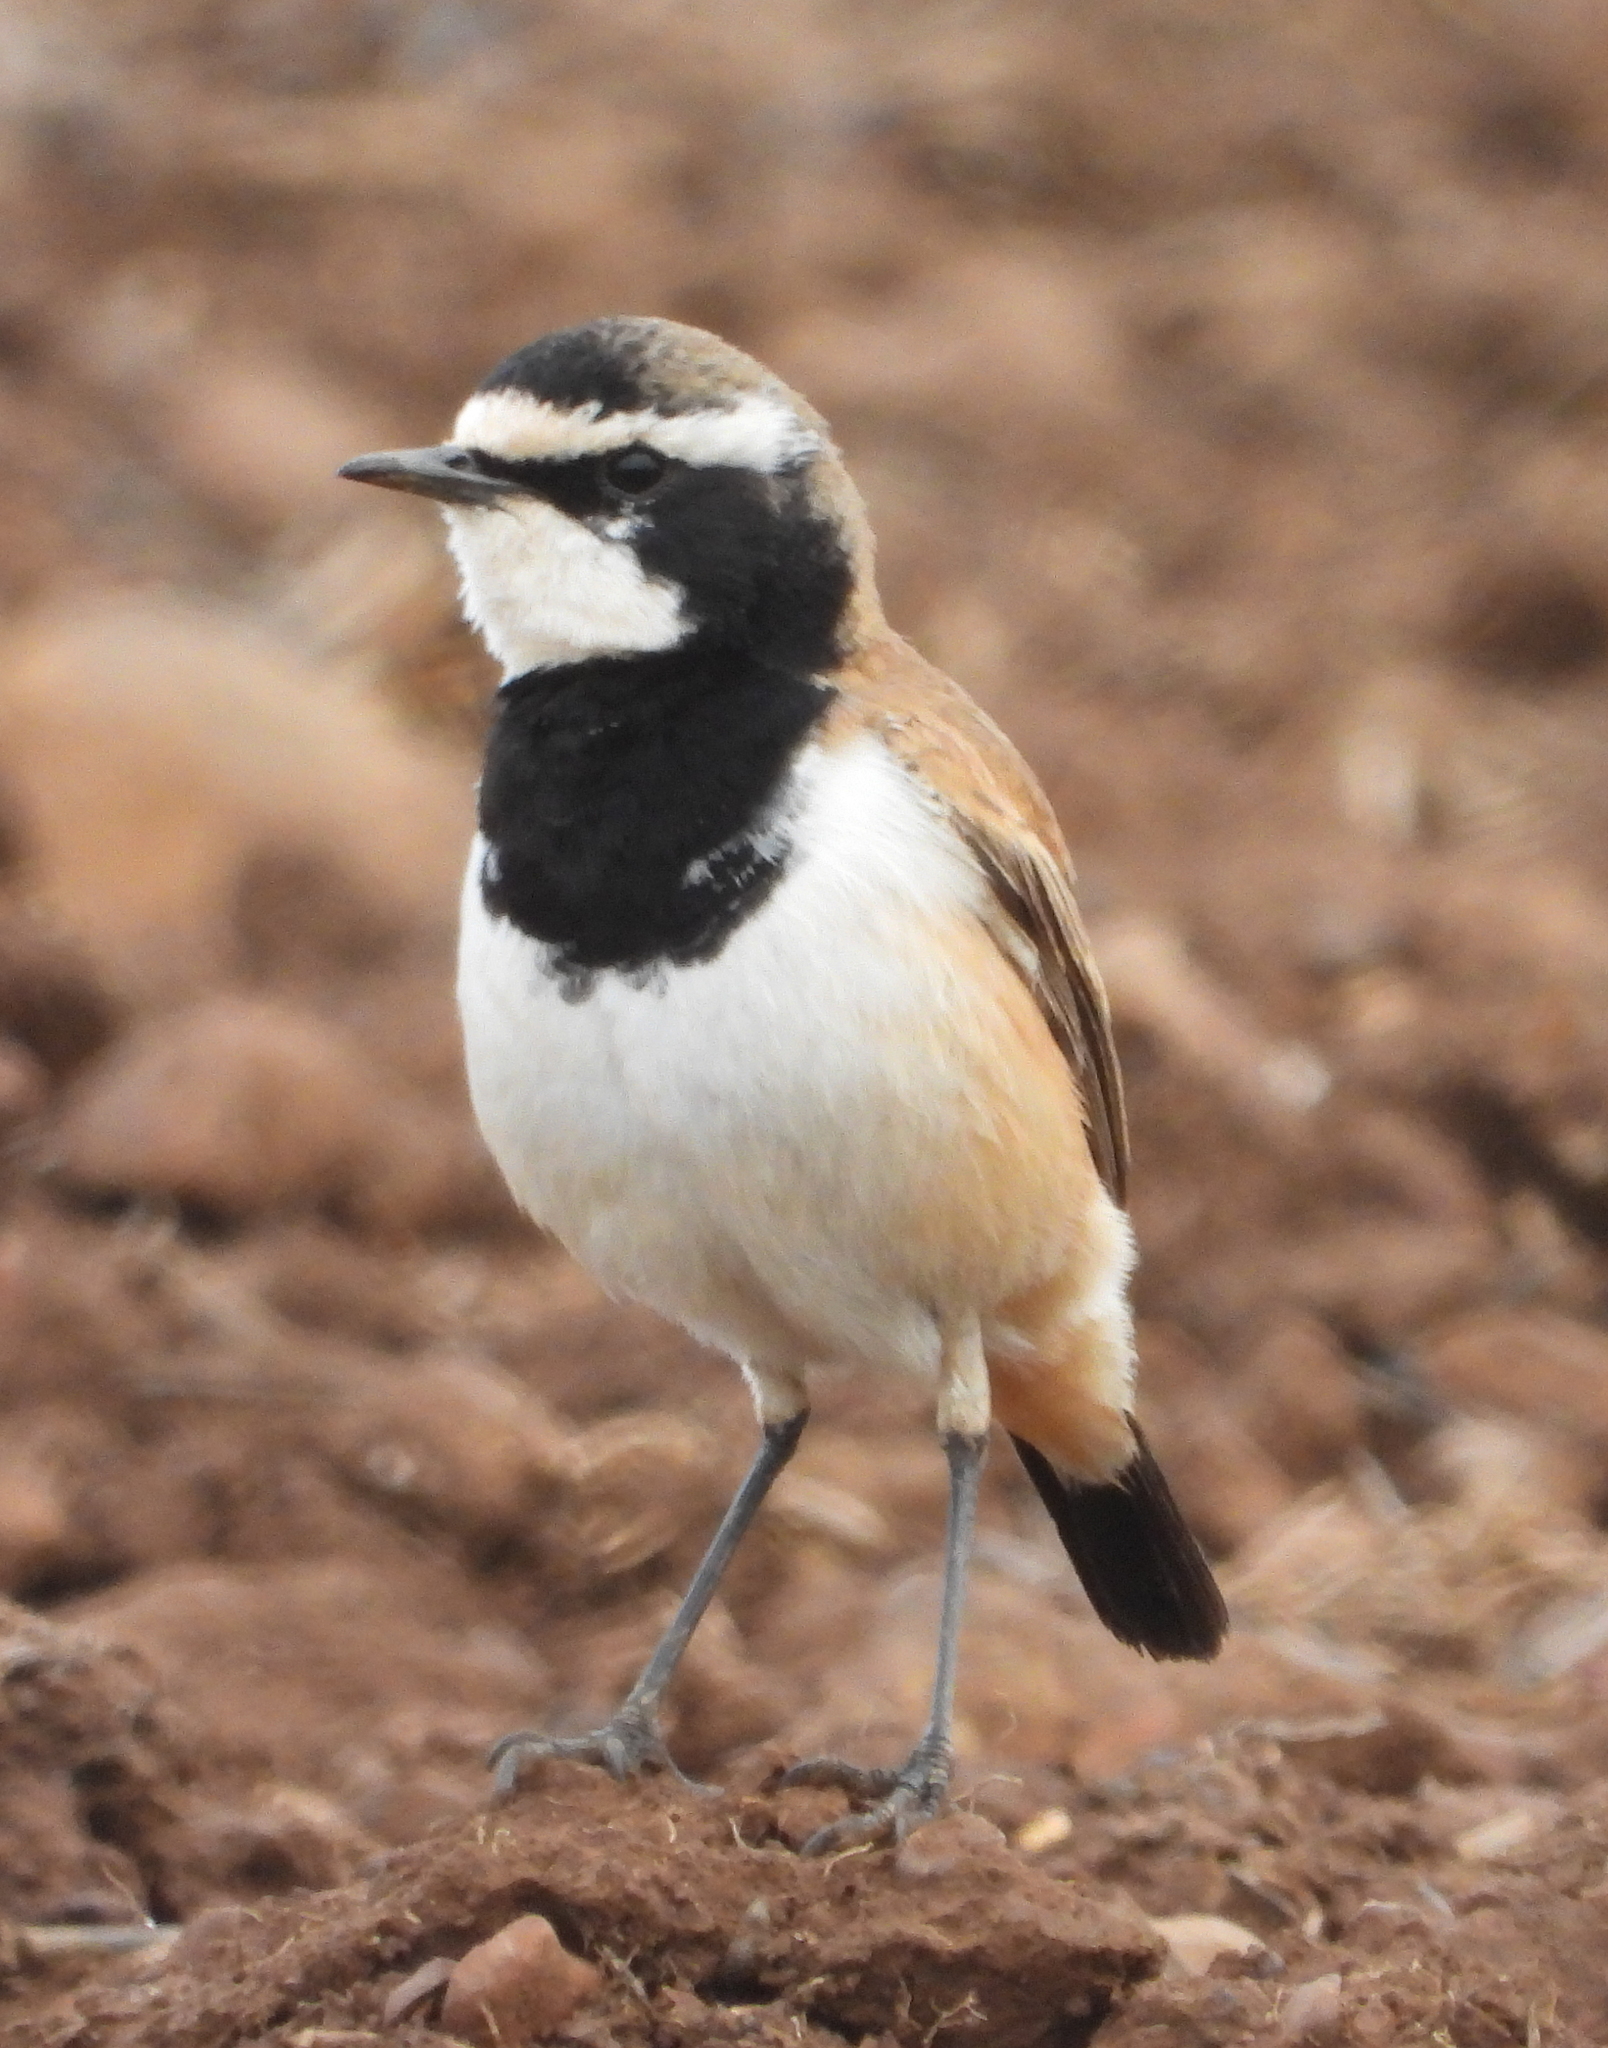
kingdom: Animalia
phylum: Chordata
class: Aves
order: Passeriformes
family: Muscicapidae
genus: Oenanthe
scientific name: Oenanthe pileata
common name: Capped wheatear
